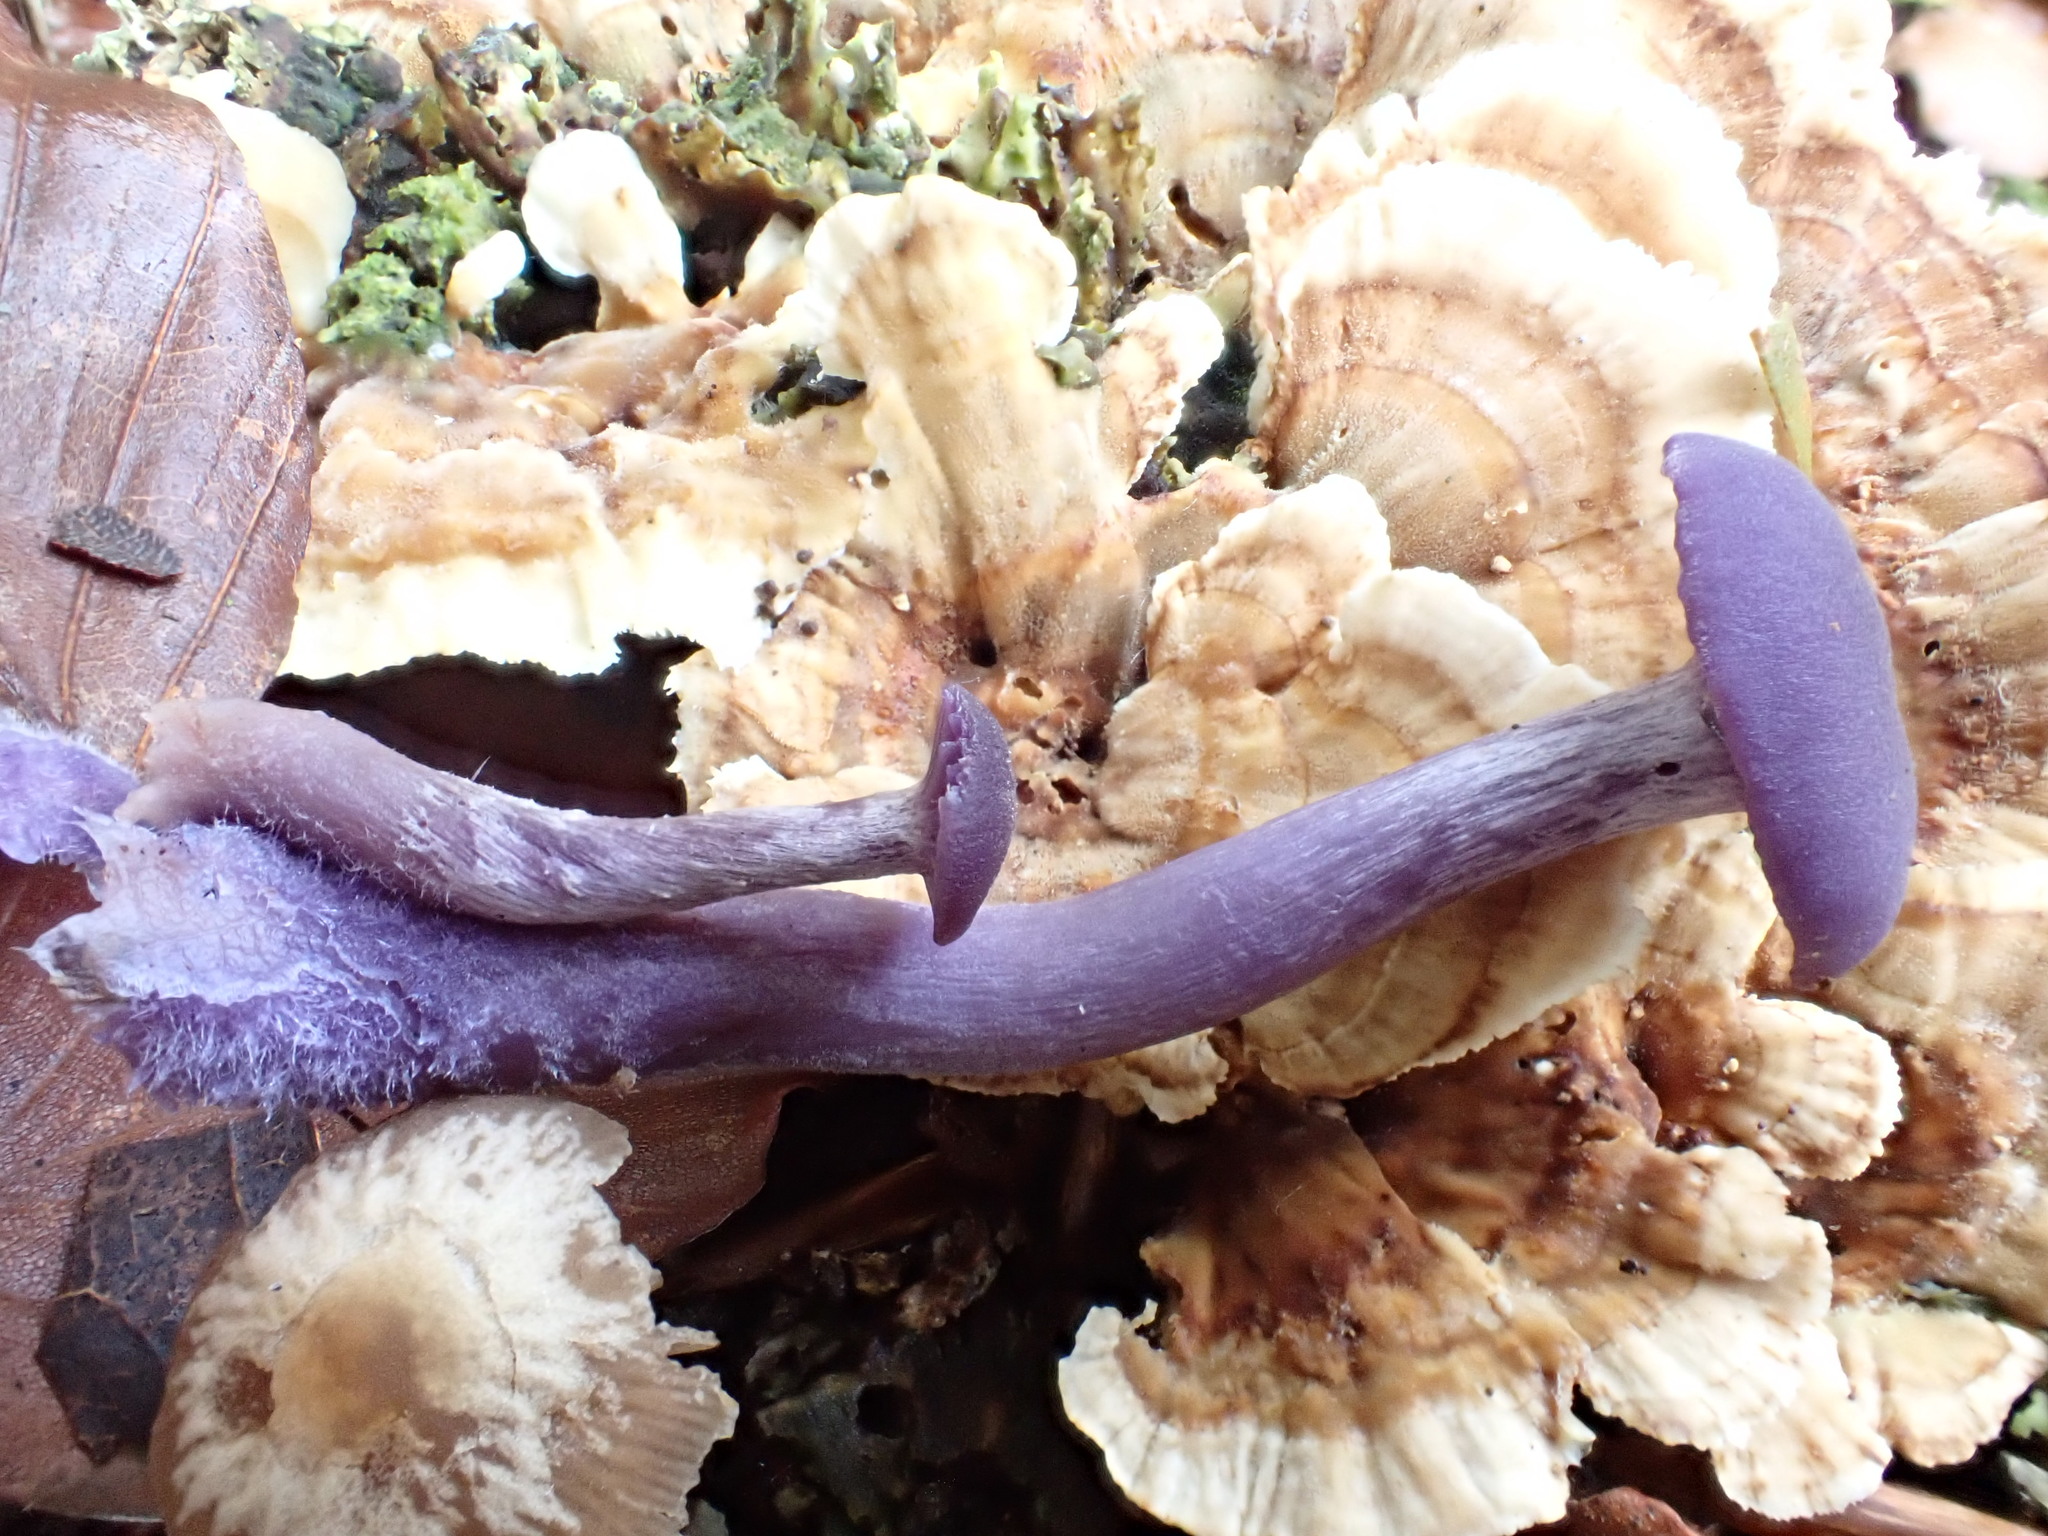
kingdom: Fungi
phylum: Basidiomycota
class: Agaricomycetes
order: Agaricales
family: Hydnangiaceae
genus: Laccaria
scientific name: Laccaria amethystina
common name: Amethyst deceiver
